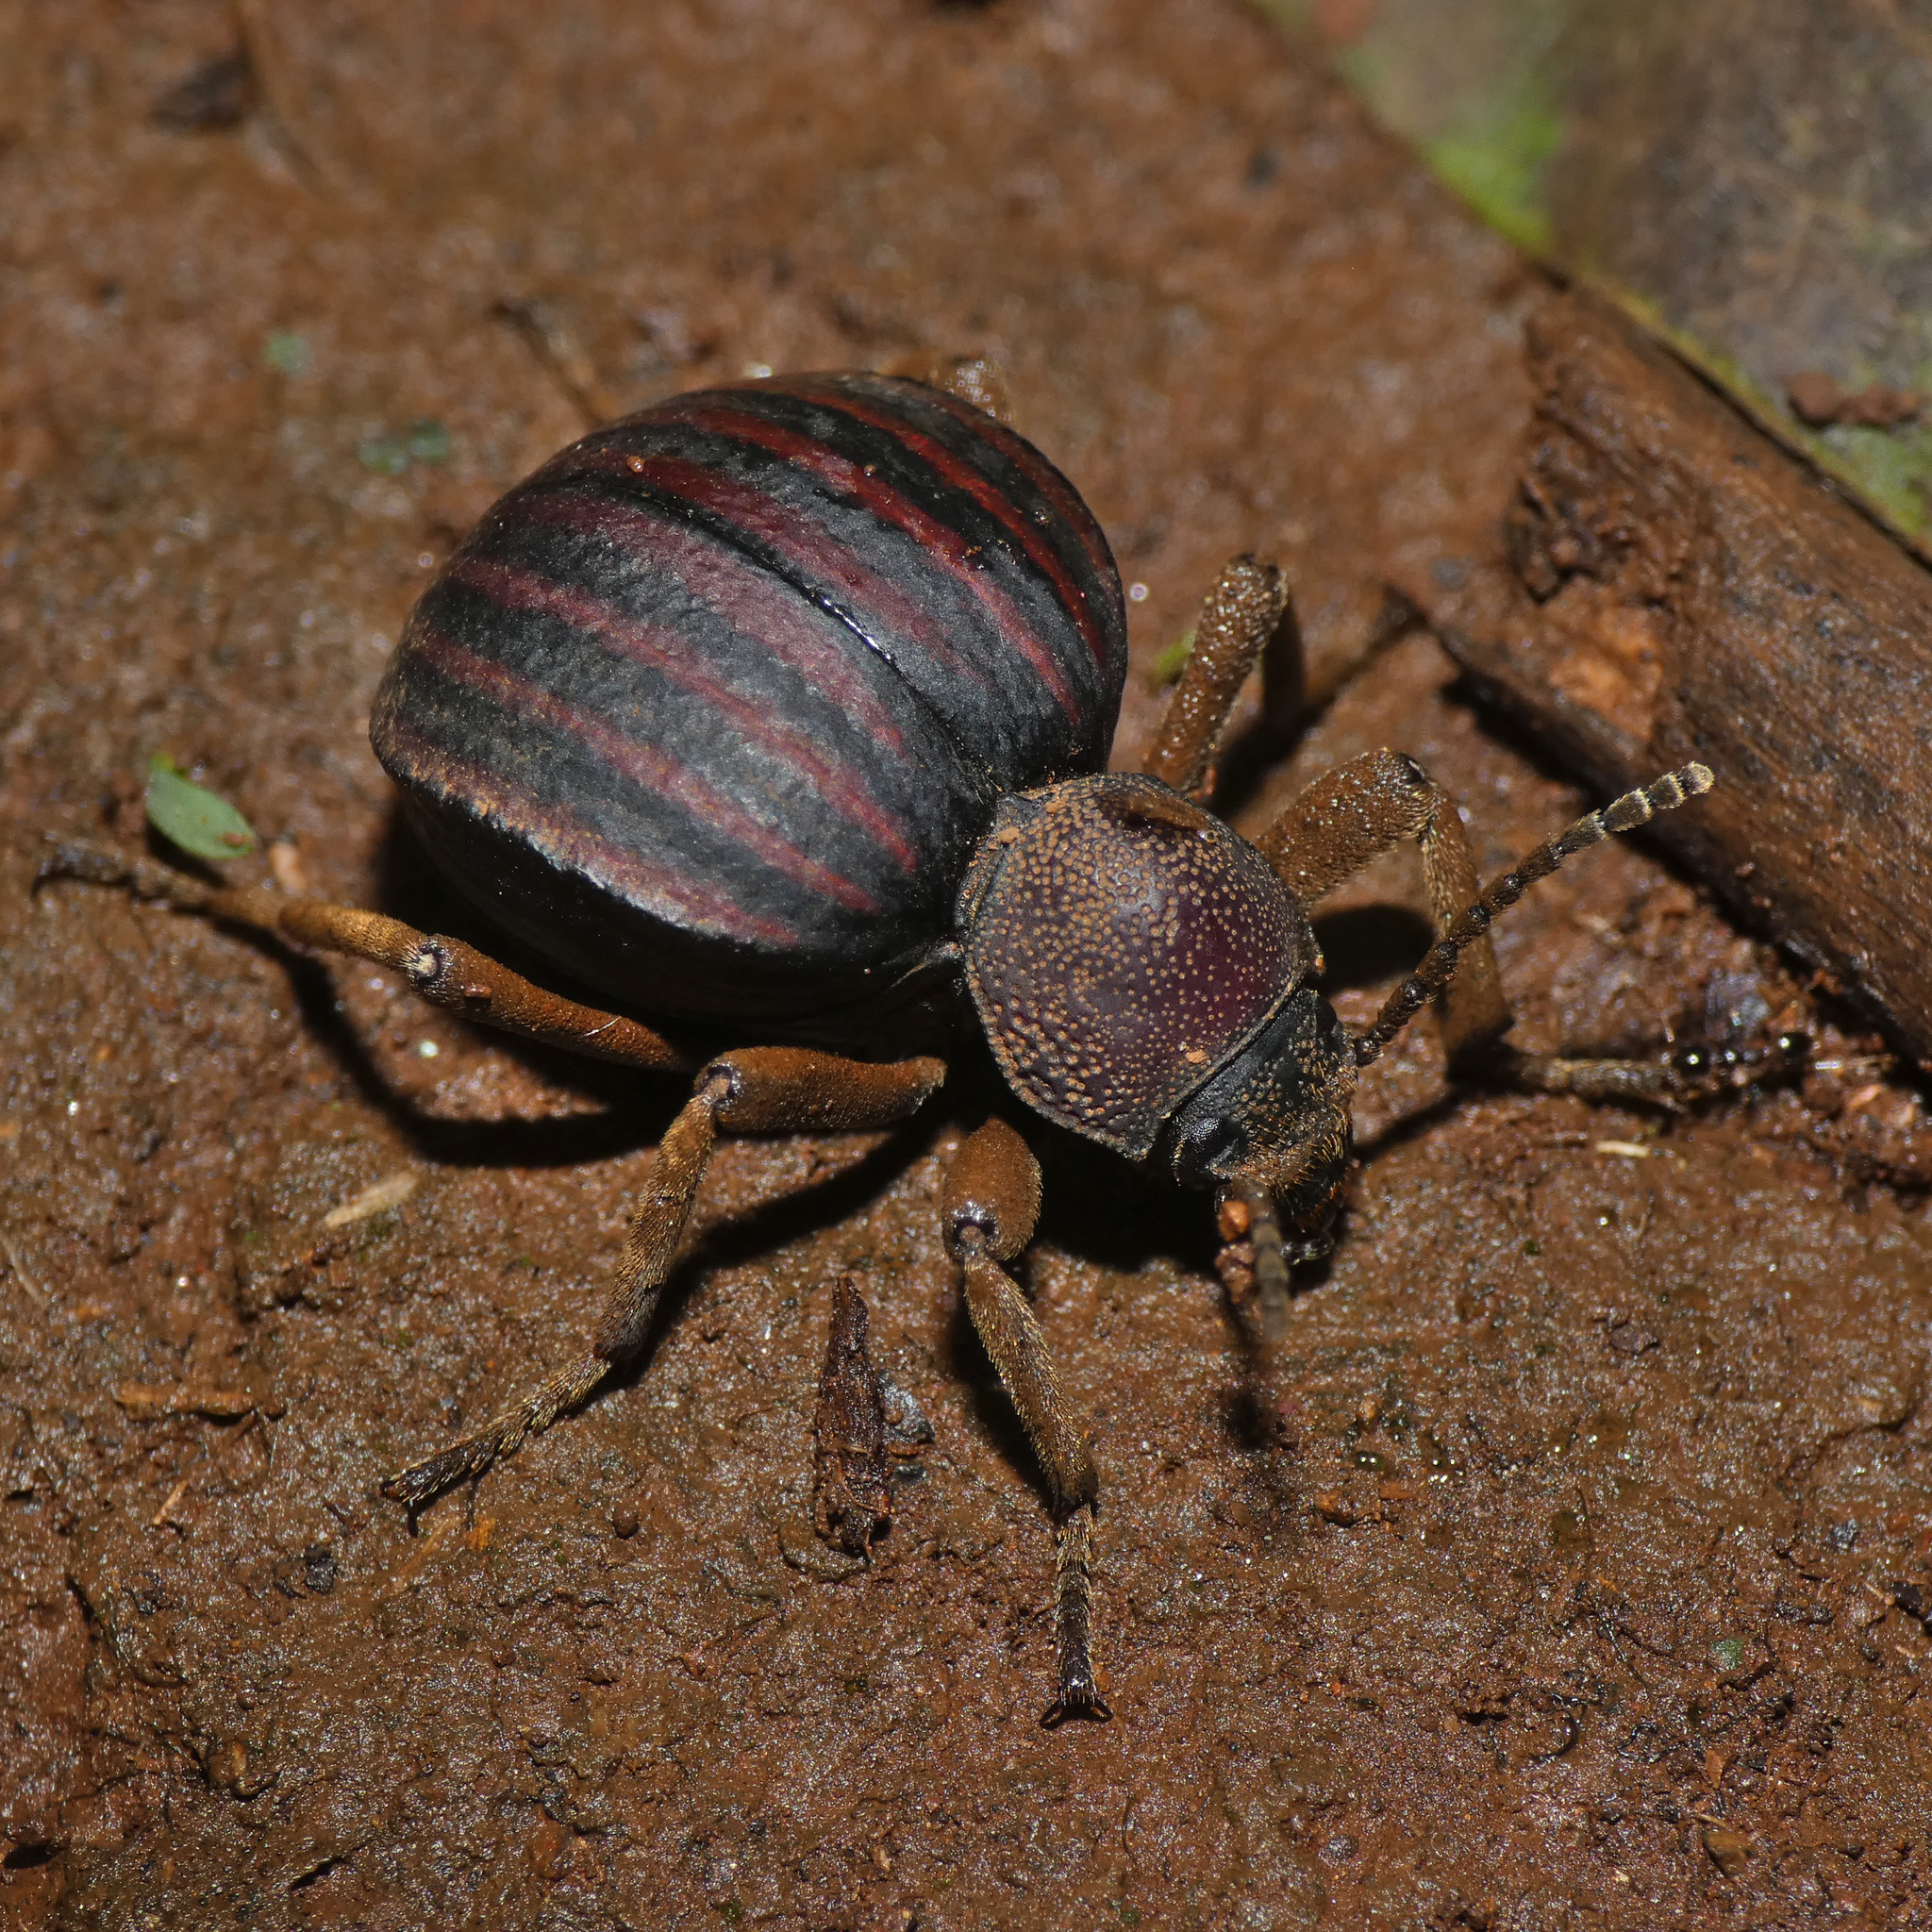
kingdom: Animalia
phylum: Arthropoda
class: Insecta
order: Coleoptera
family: Tenebrionidae
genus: Dichtha
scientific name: Dichtha inflata
